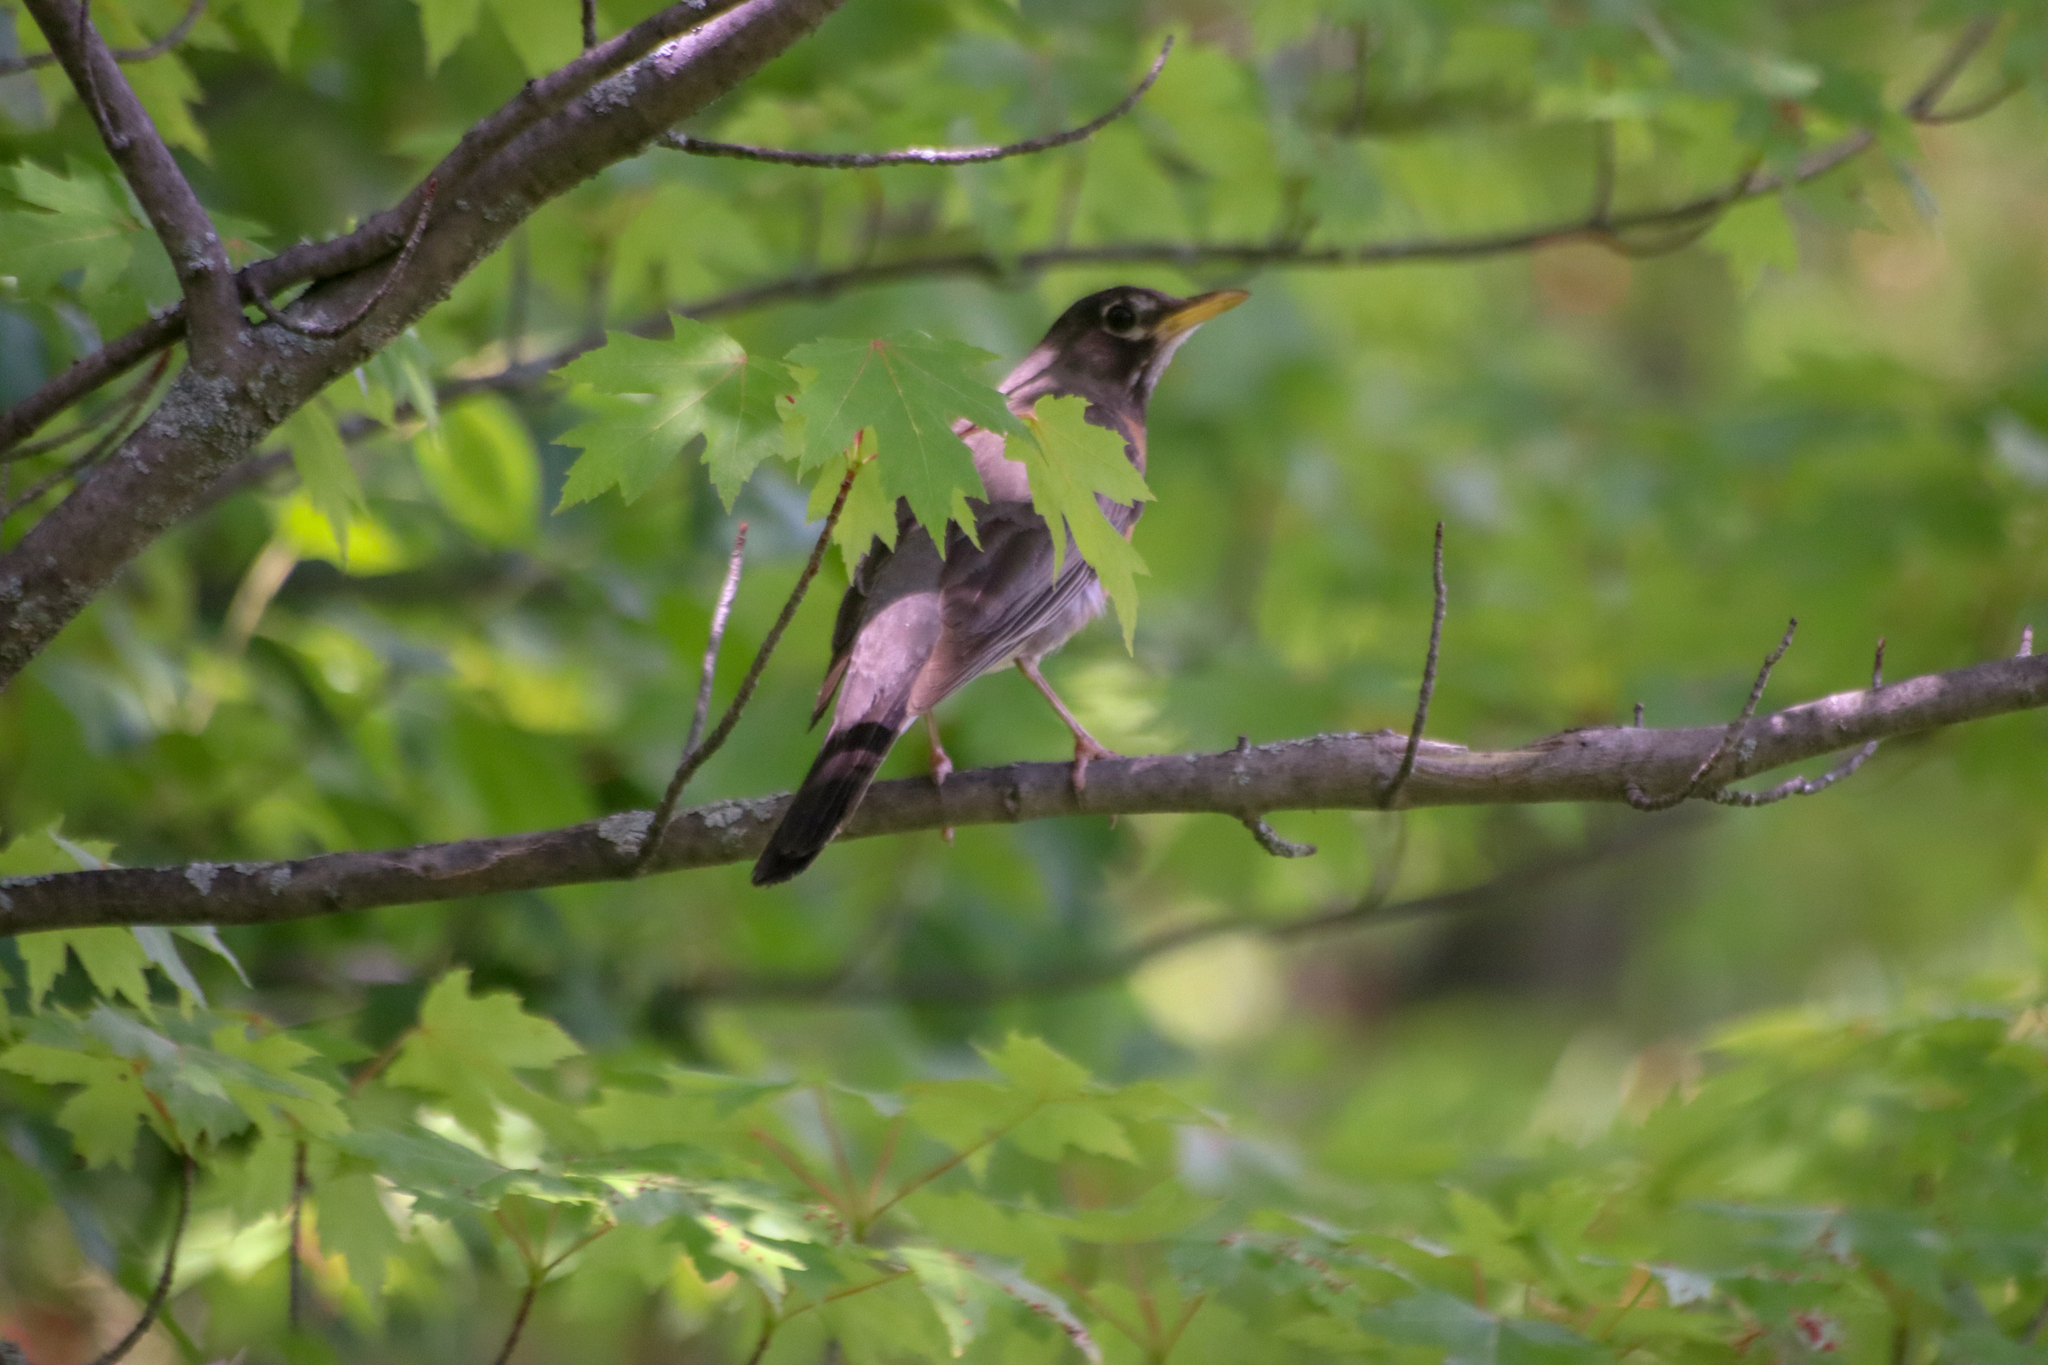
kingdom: Animalia
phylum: Chordata
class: Aves
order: Passeriformes
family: Turdidae
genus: Turdus
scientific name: Turdus migratorius
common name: American robin
